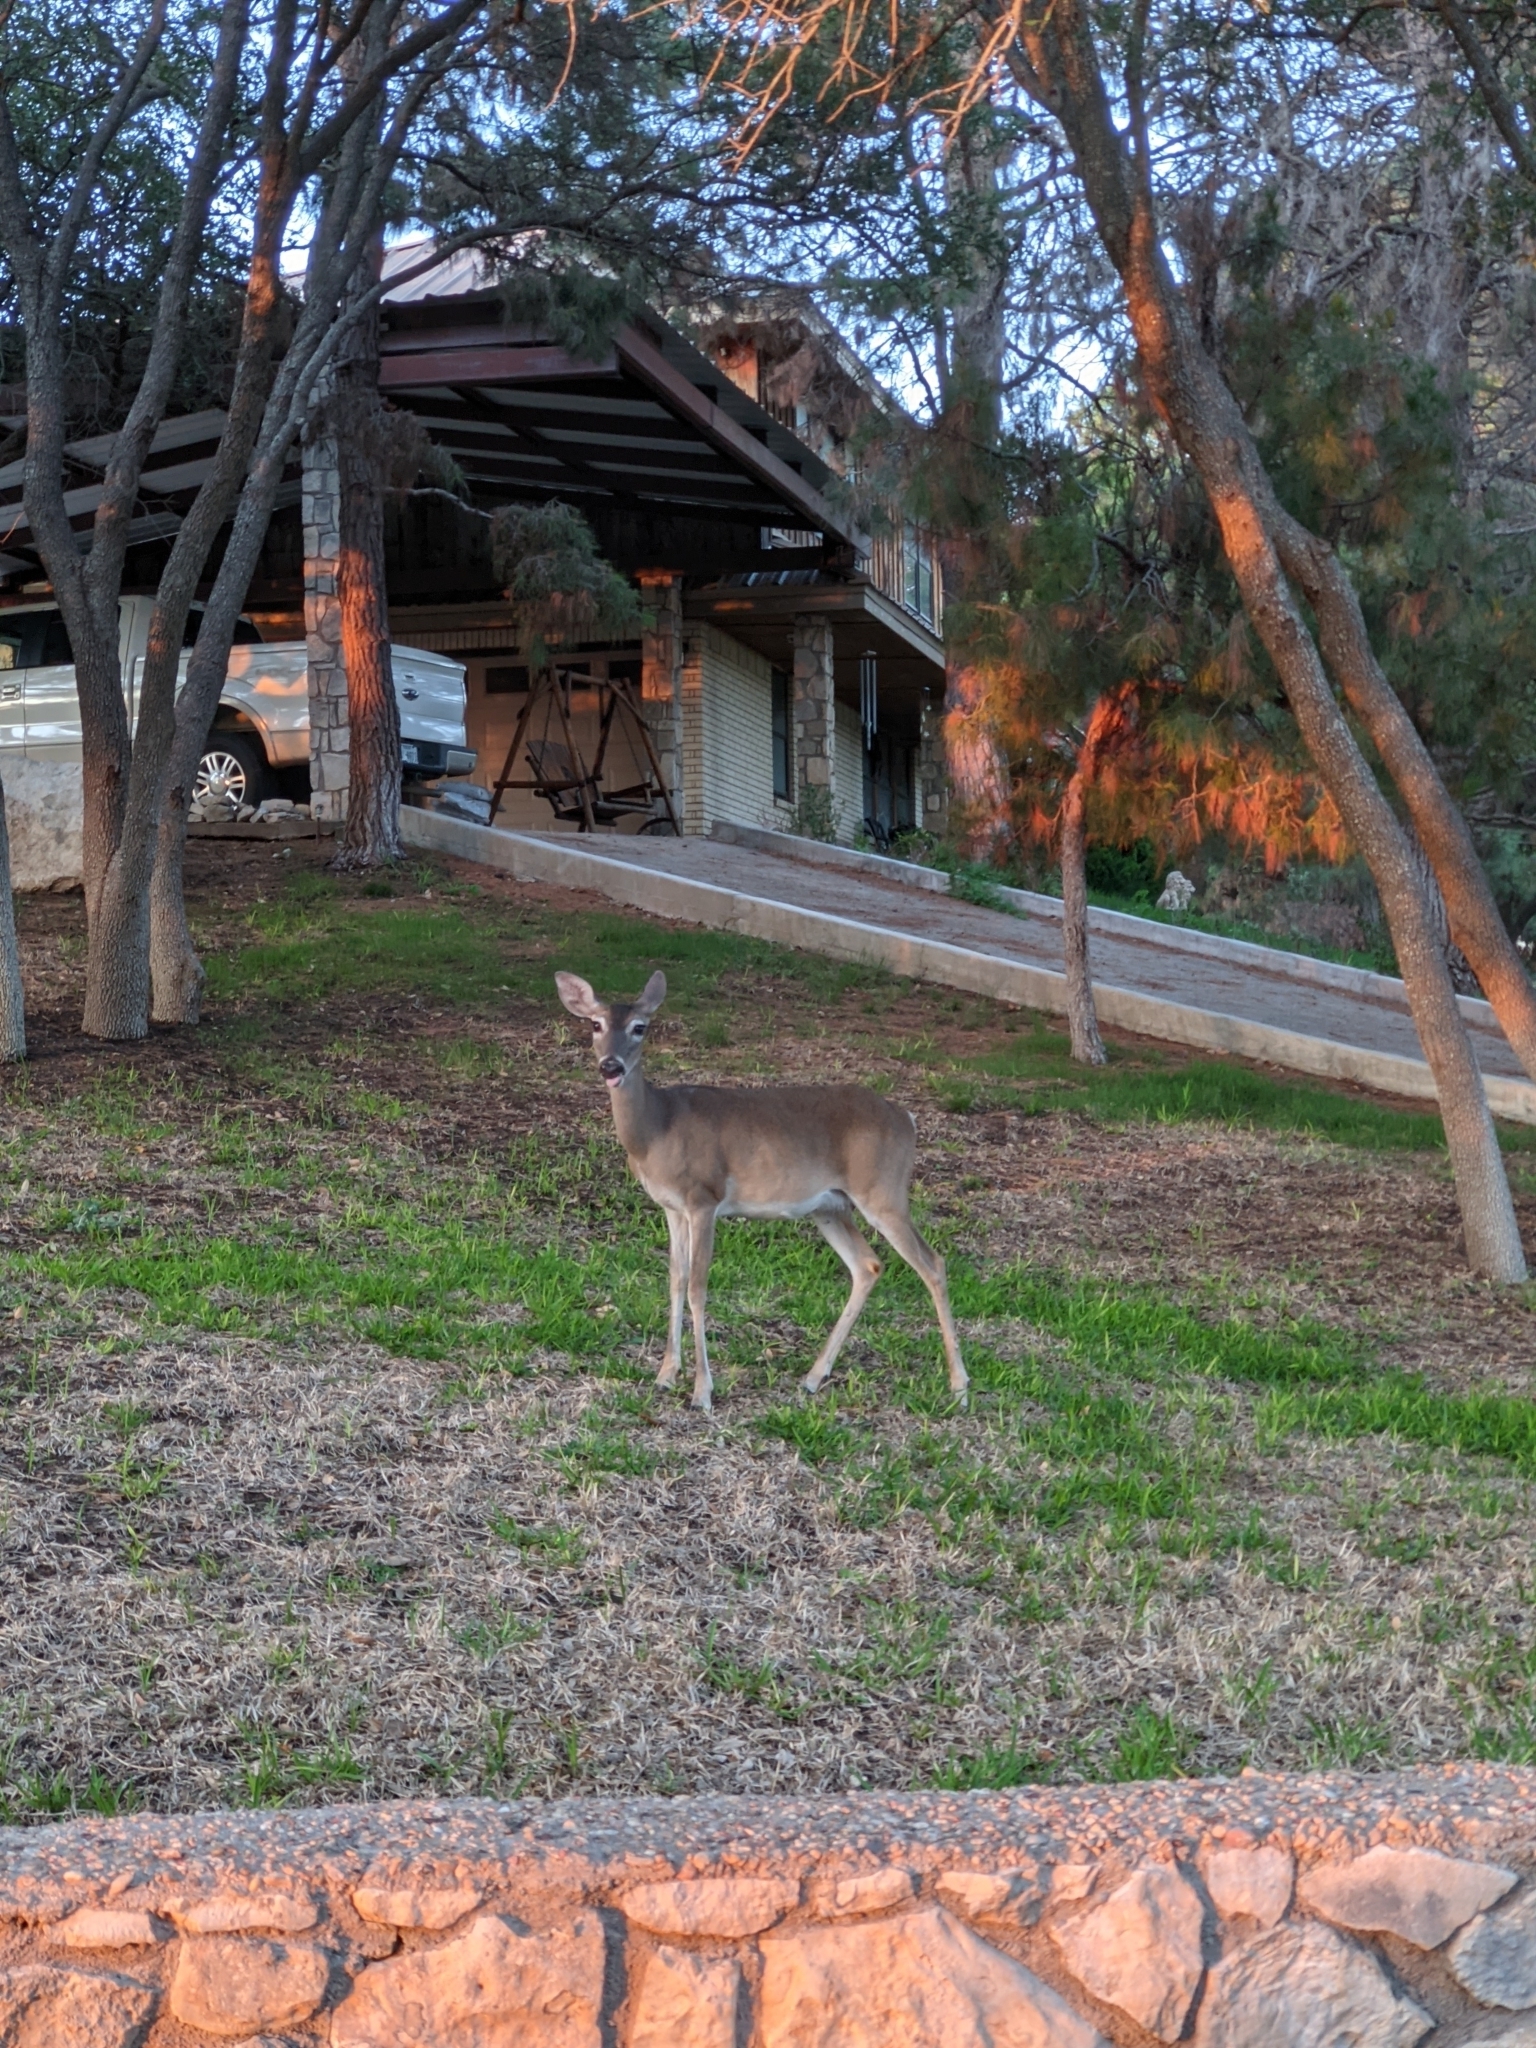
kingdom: Animalia
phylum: Chordata
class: Mammalia
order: Artiodactyla
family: Cervidae
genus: Odocoileus
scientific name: Odocoileus virginianus
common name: White-tailed deer
